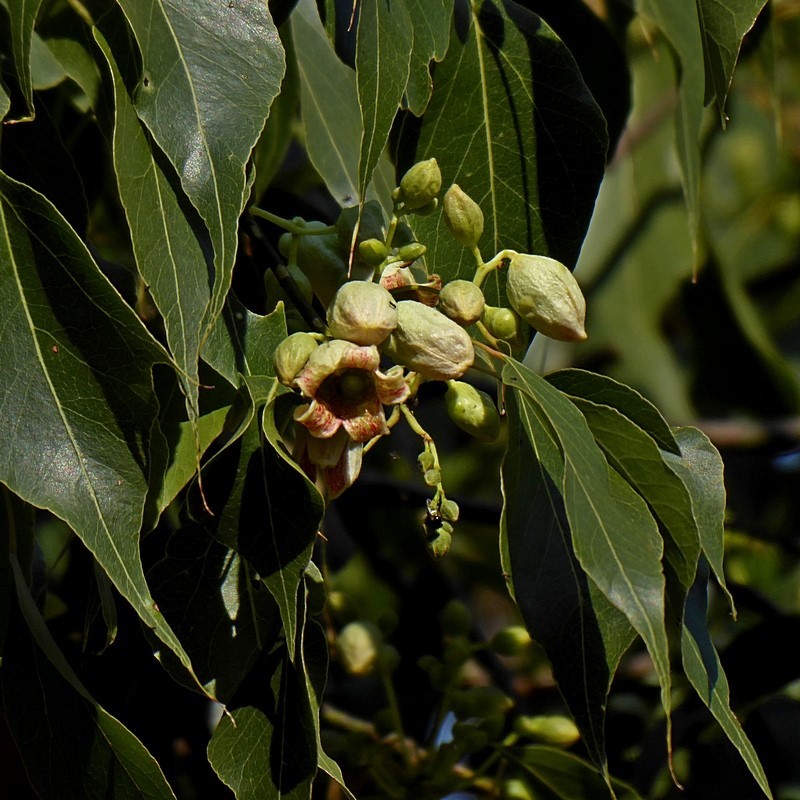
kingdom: Plantae
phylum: Tracheophyta
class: Magnoliopsida
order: Malvales
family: Malvaceae
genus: Brachychiton
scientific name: Brachychiton populneus
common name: Kurrajong
